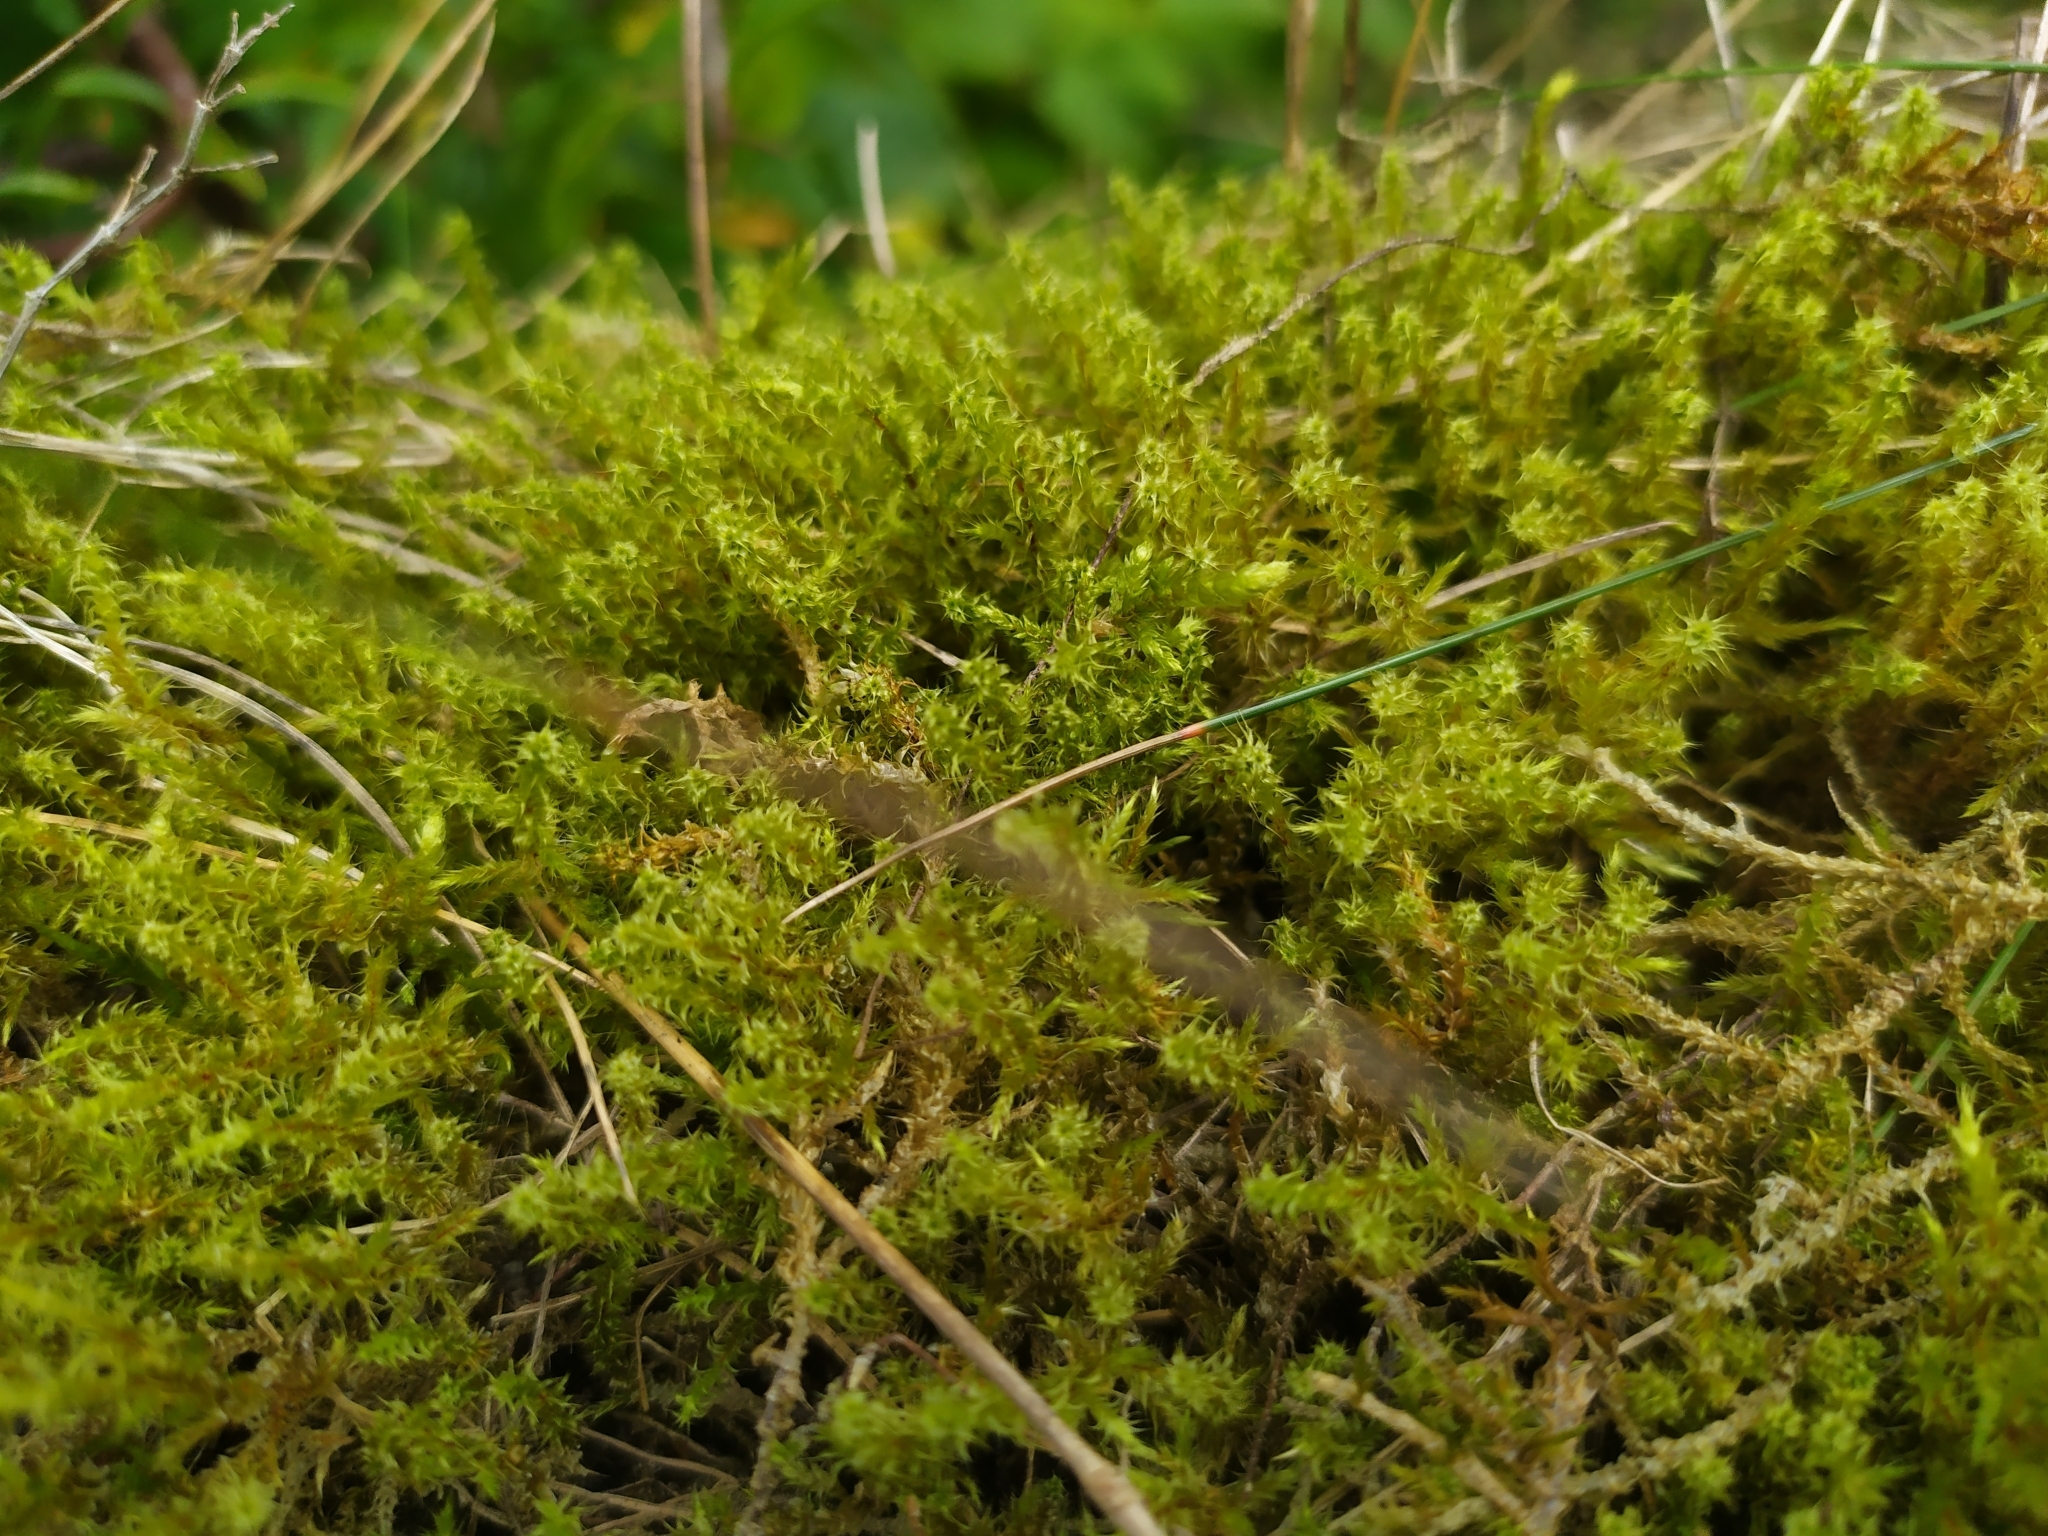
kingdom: Plantae
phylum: Bryophyta
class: Bryopsida
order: Hypnales
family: Hylocomiaceae
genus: Rhytidiadelphus
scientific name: Rhytidiadelphus squarrosus
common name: Springy turf-moss
